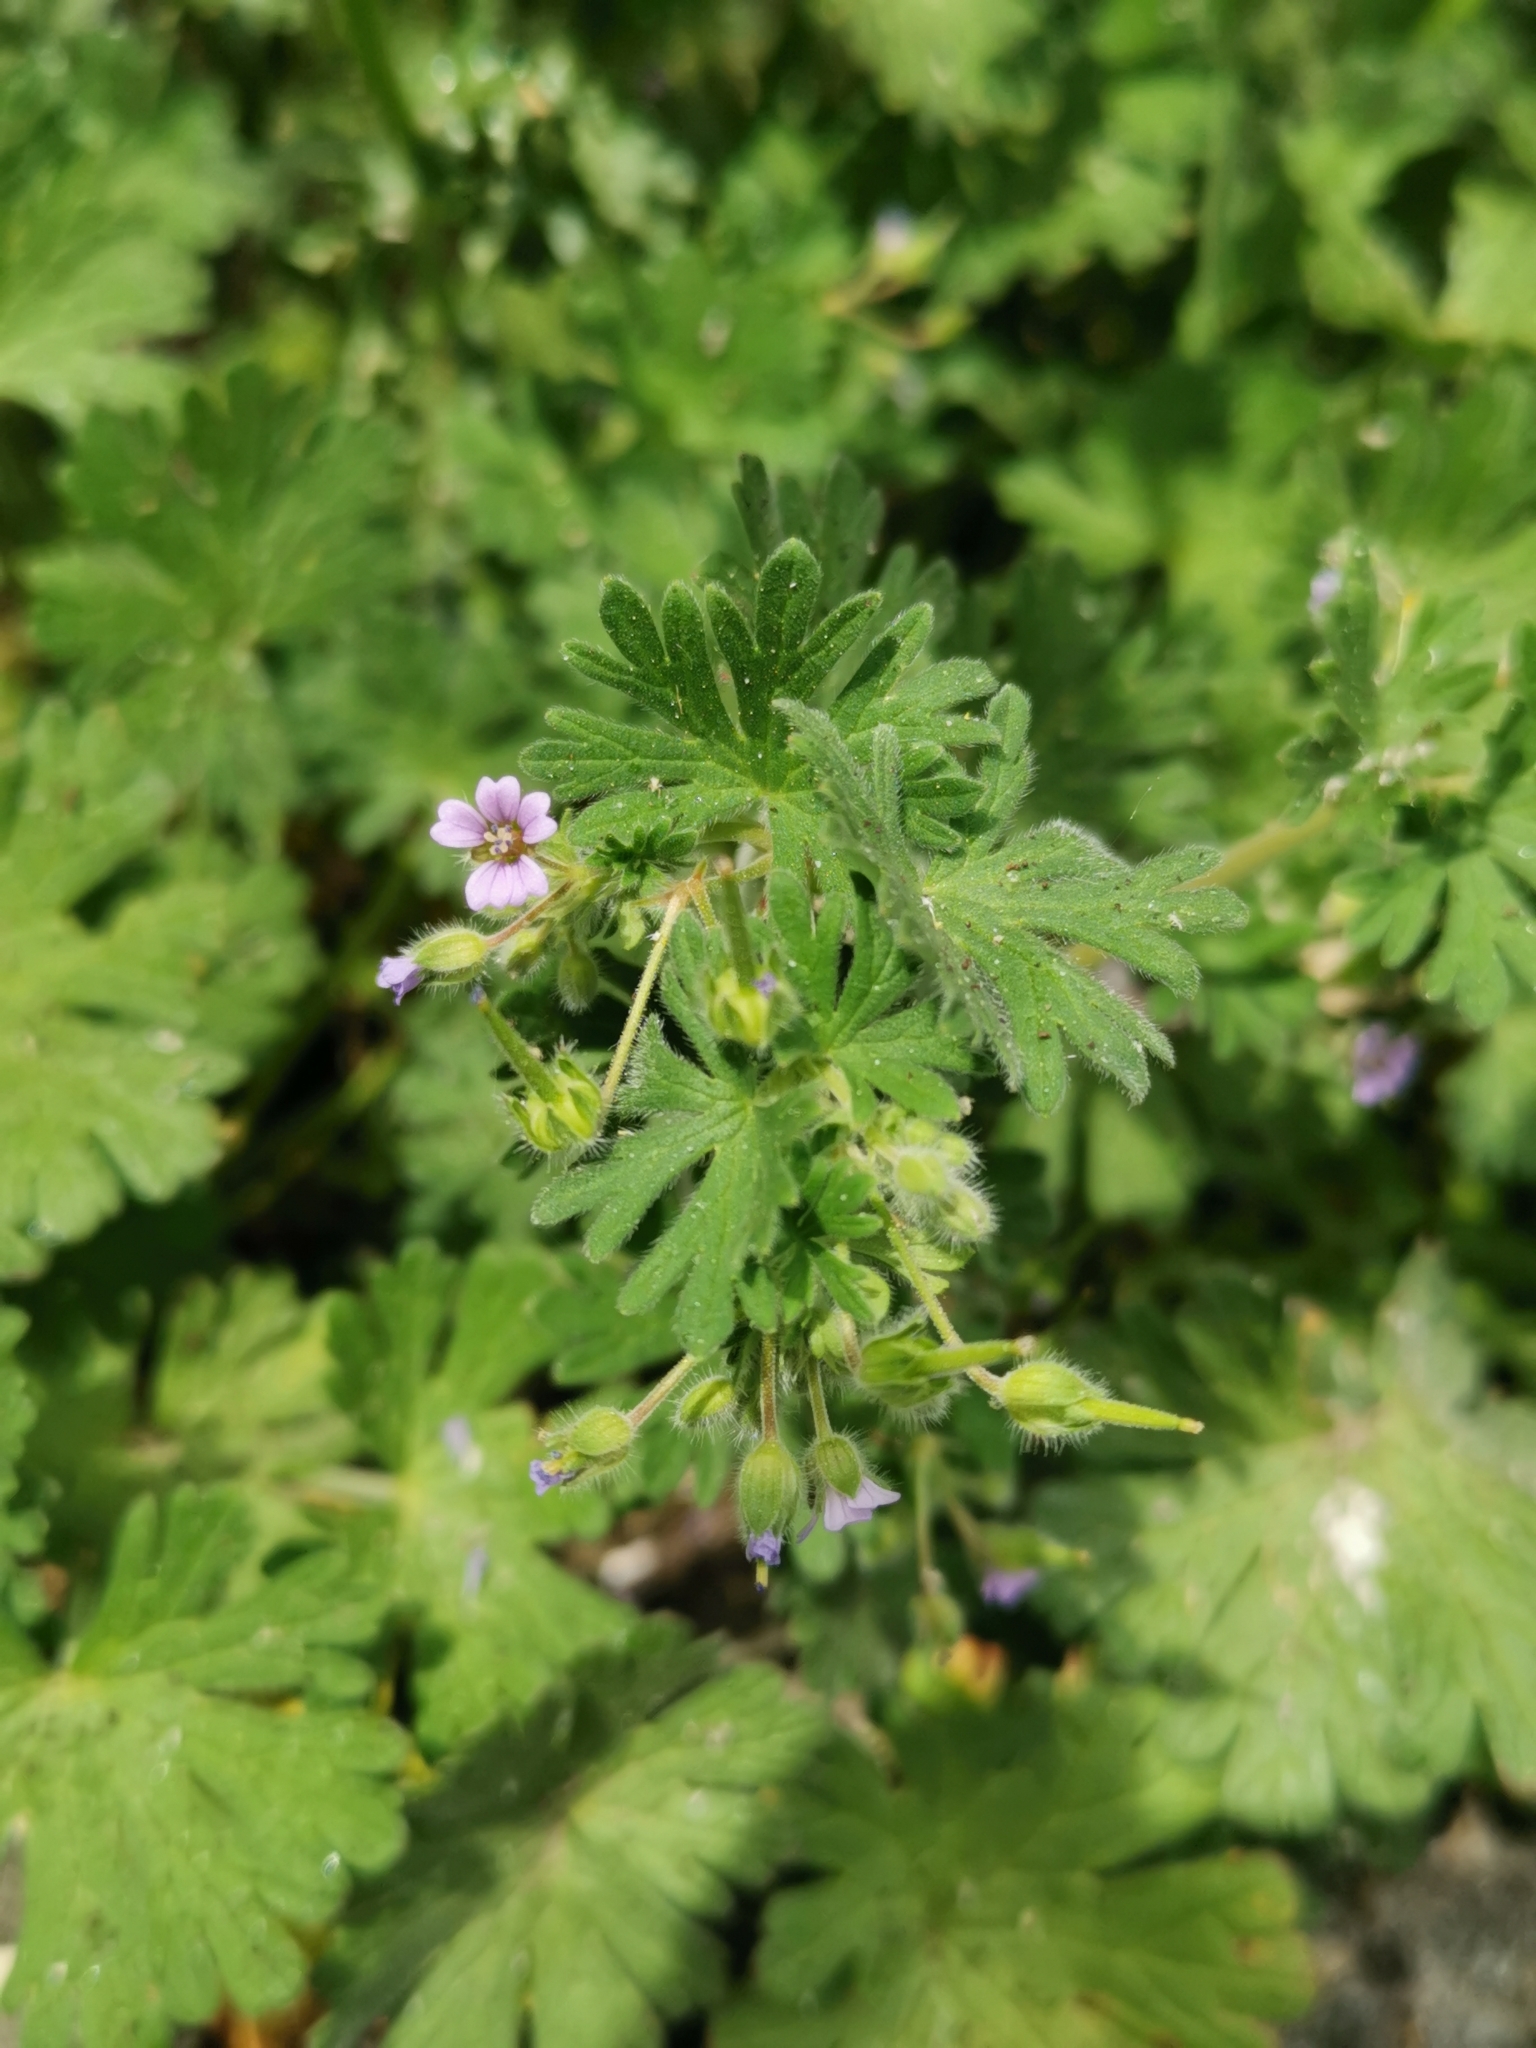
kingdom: Plantae
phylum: Tracheophyta
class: Magnoliopsida
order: Geraniales
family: Geraniaceae
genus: Geranium
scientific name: Geranium pusillum
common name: Small geranium
